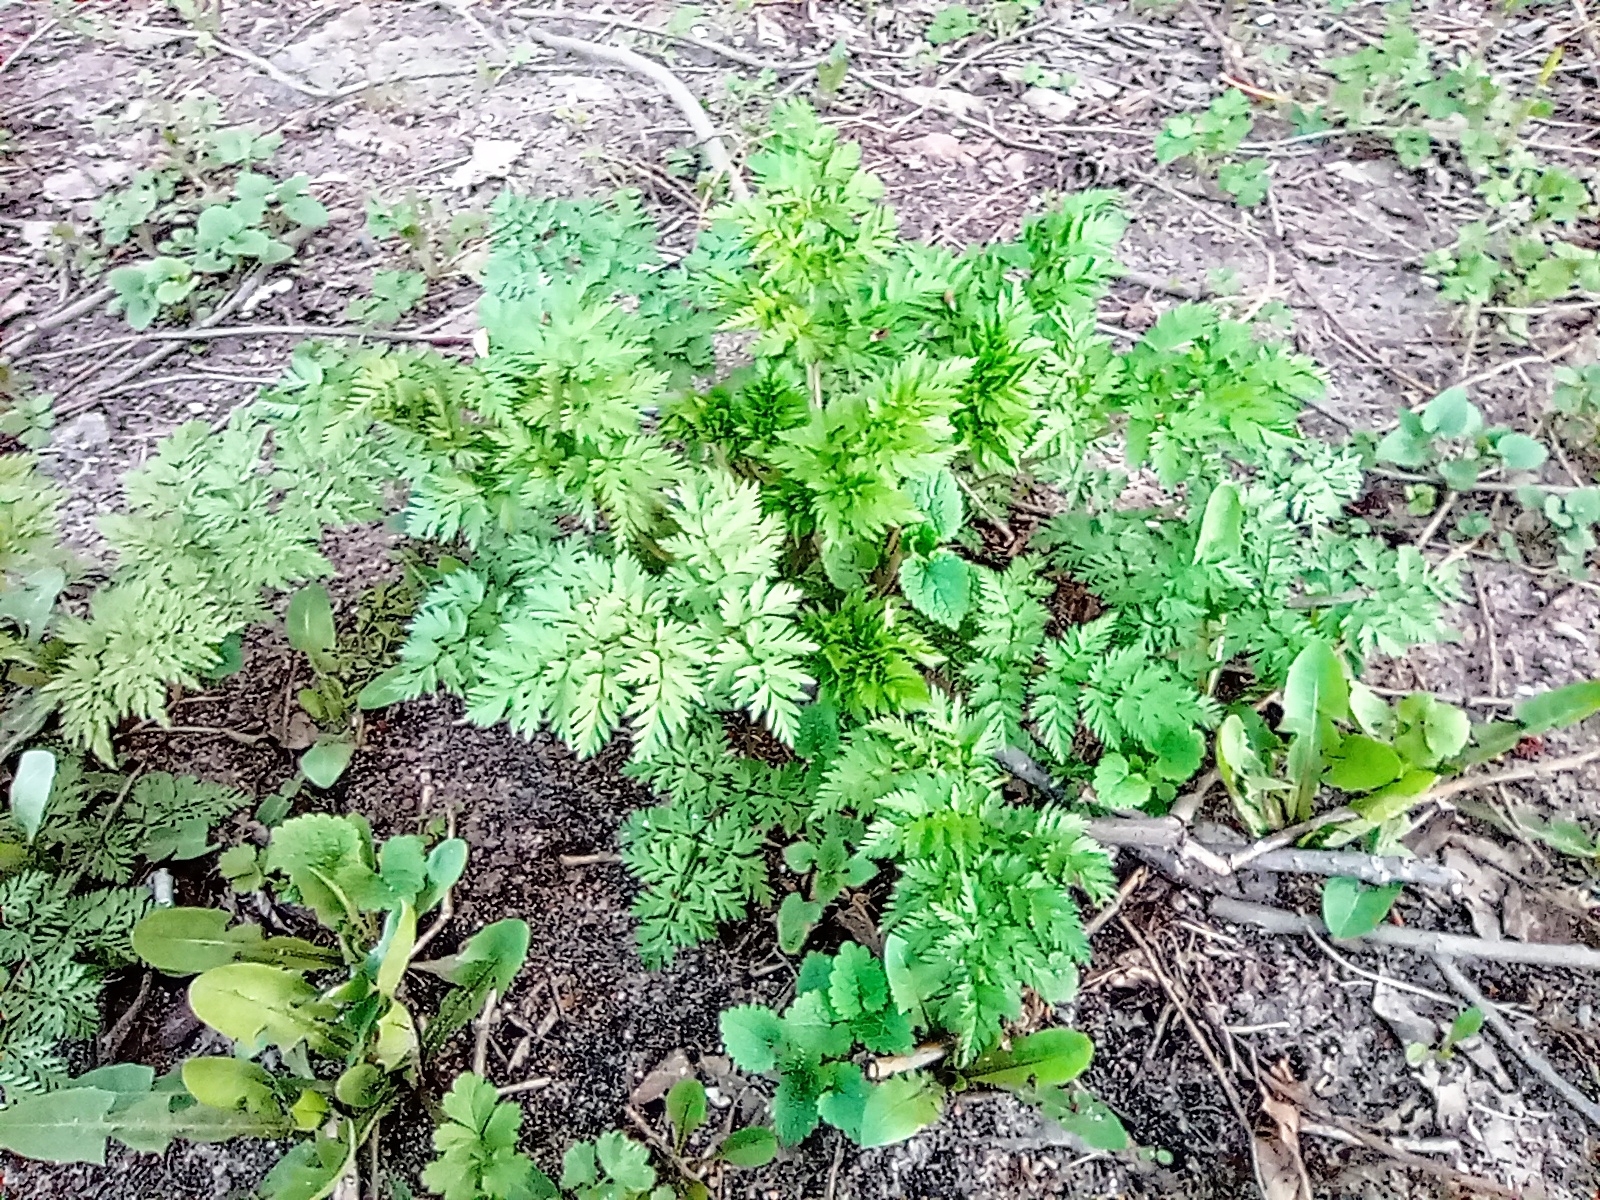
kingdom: Plantae
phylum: Tracheophyta
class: Magnoliopsida
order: Apiales
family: Apiaceae
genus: Anthriscus
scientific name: Anthriscus sylvestris
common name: Cow parsley
